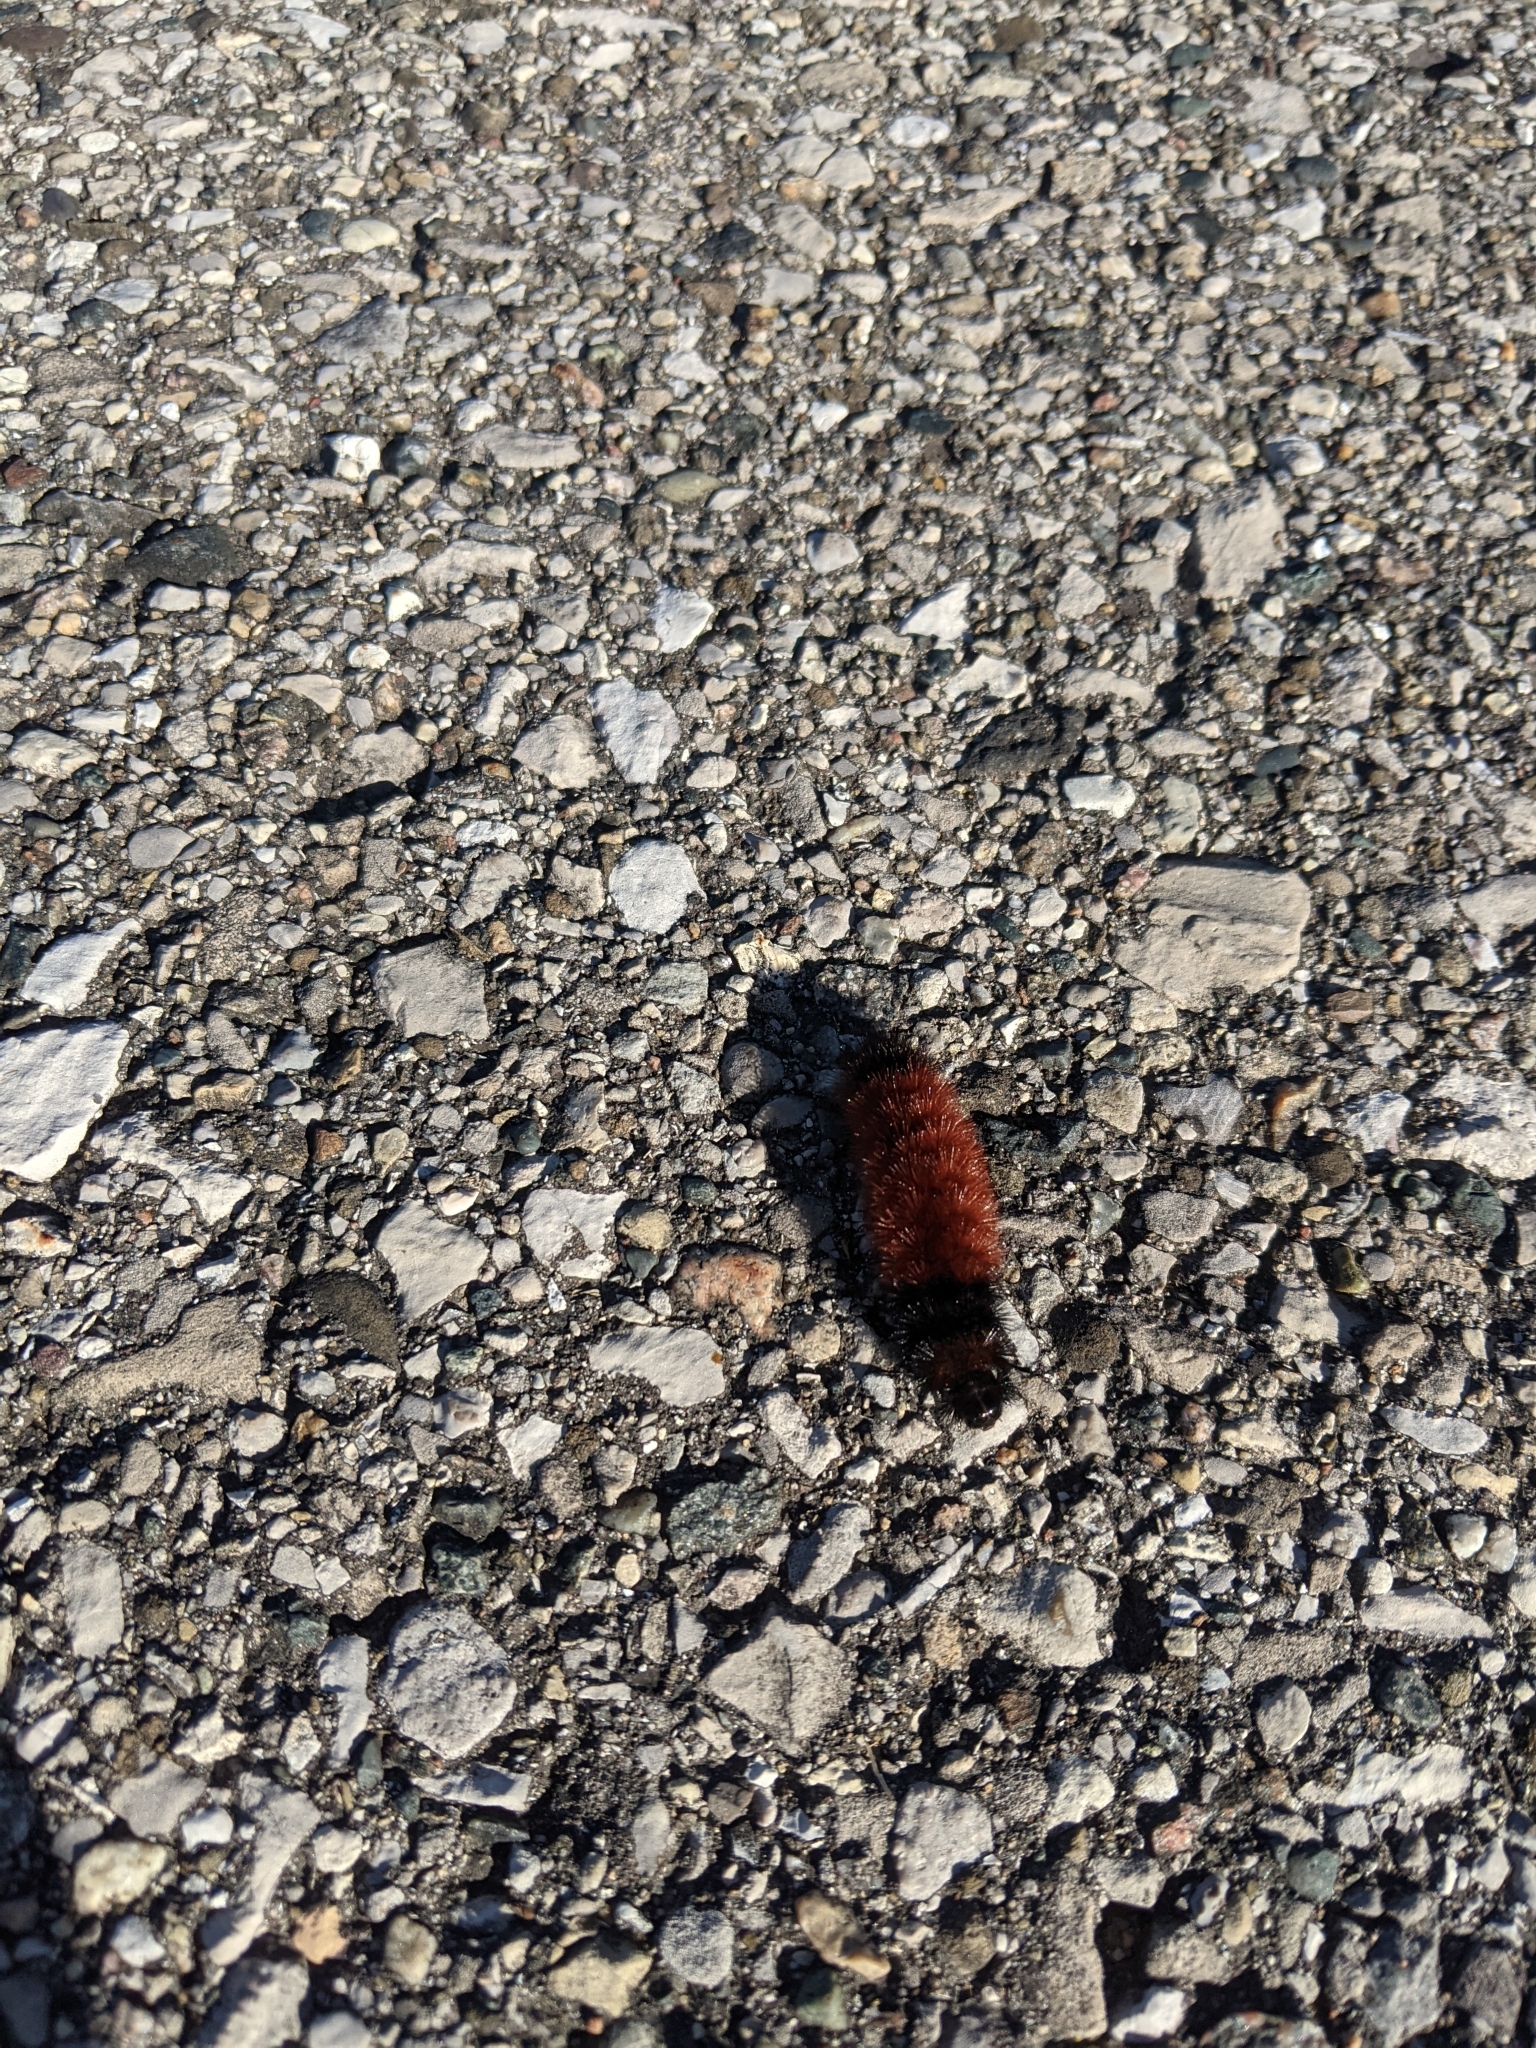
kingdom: Animalia
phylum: Arthropoda
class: Insecta
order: Lepidoptera
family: Erebidae
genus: Pyrrharctia
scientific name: Pyrrharctia isabella
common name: Isabella tiger moth
